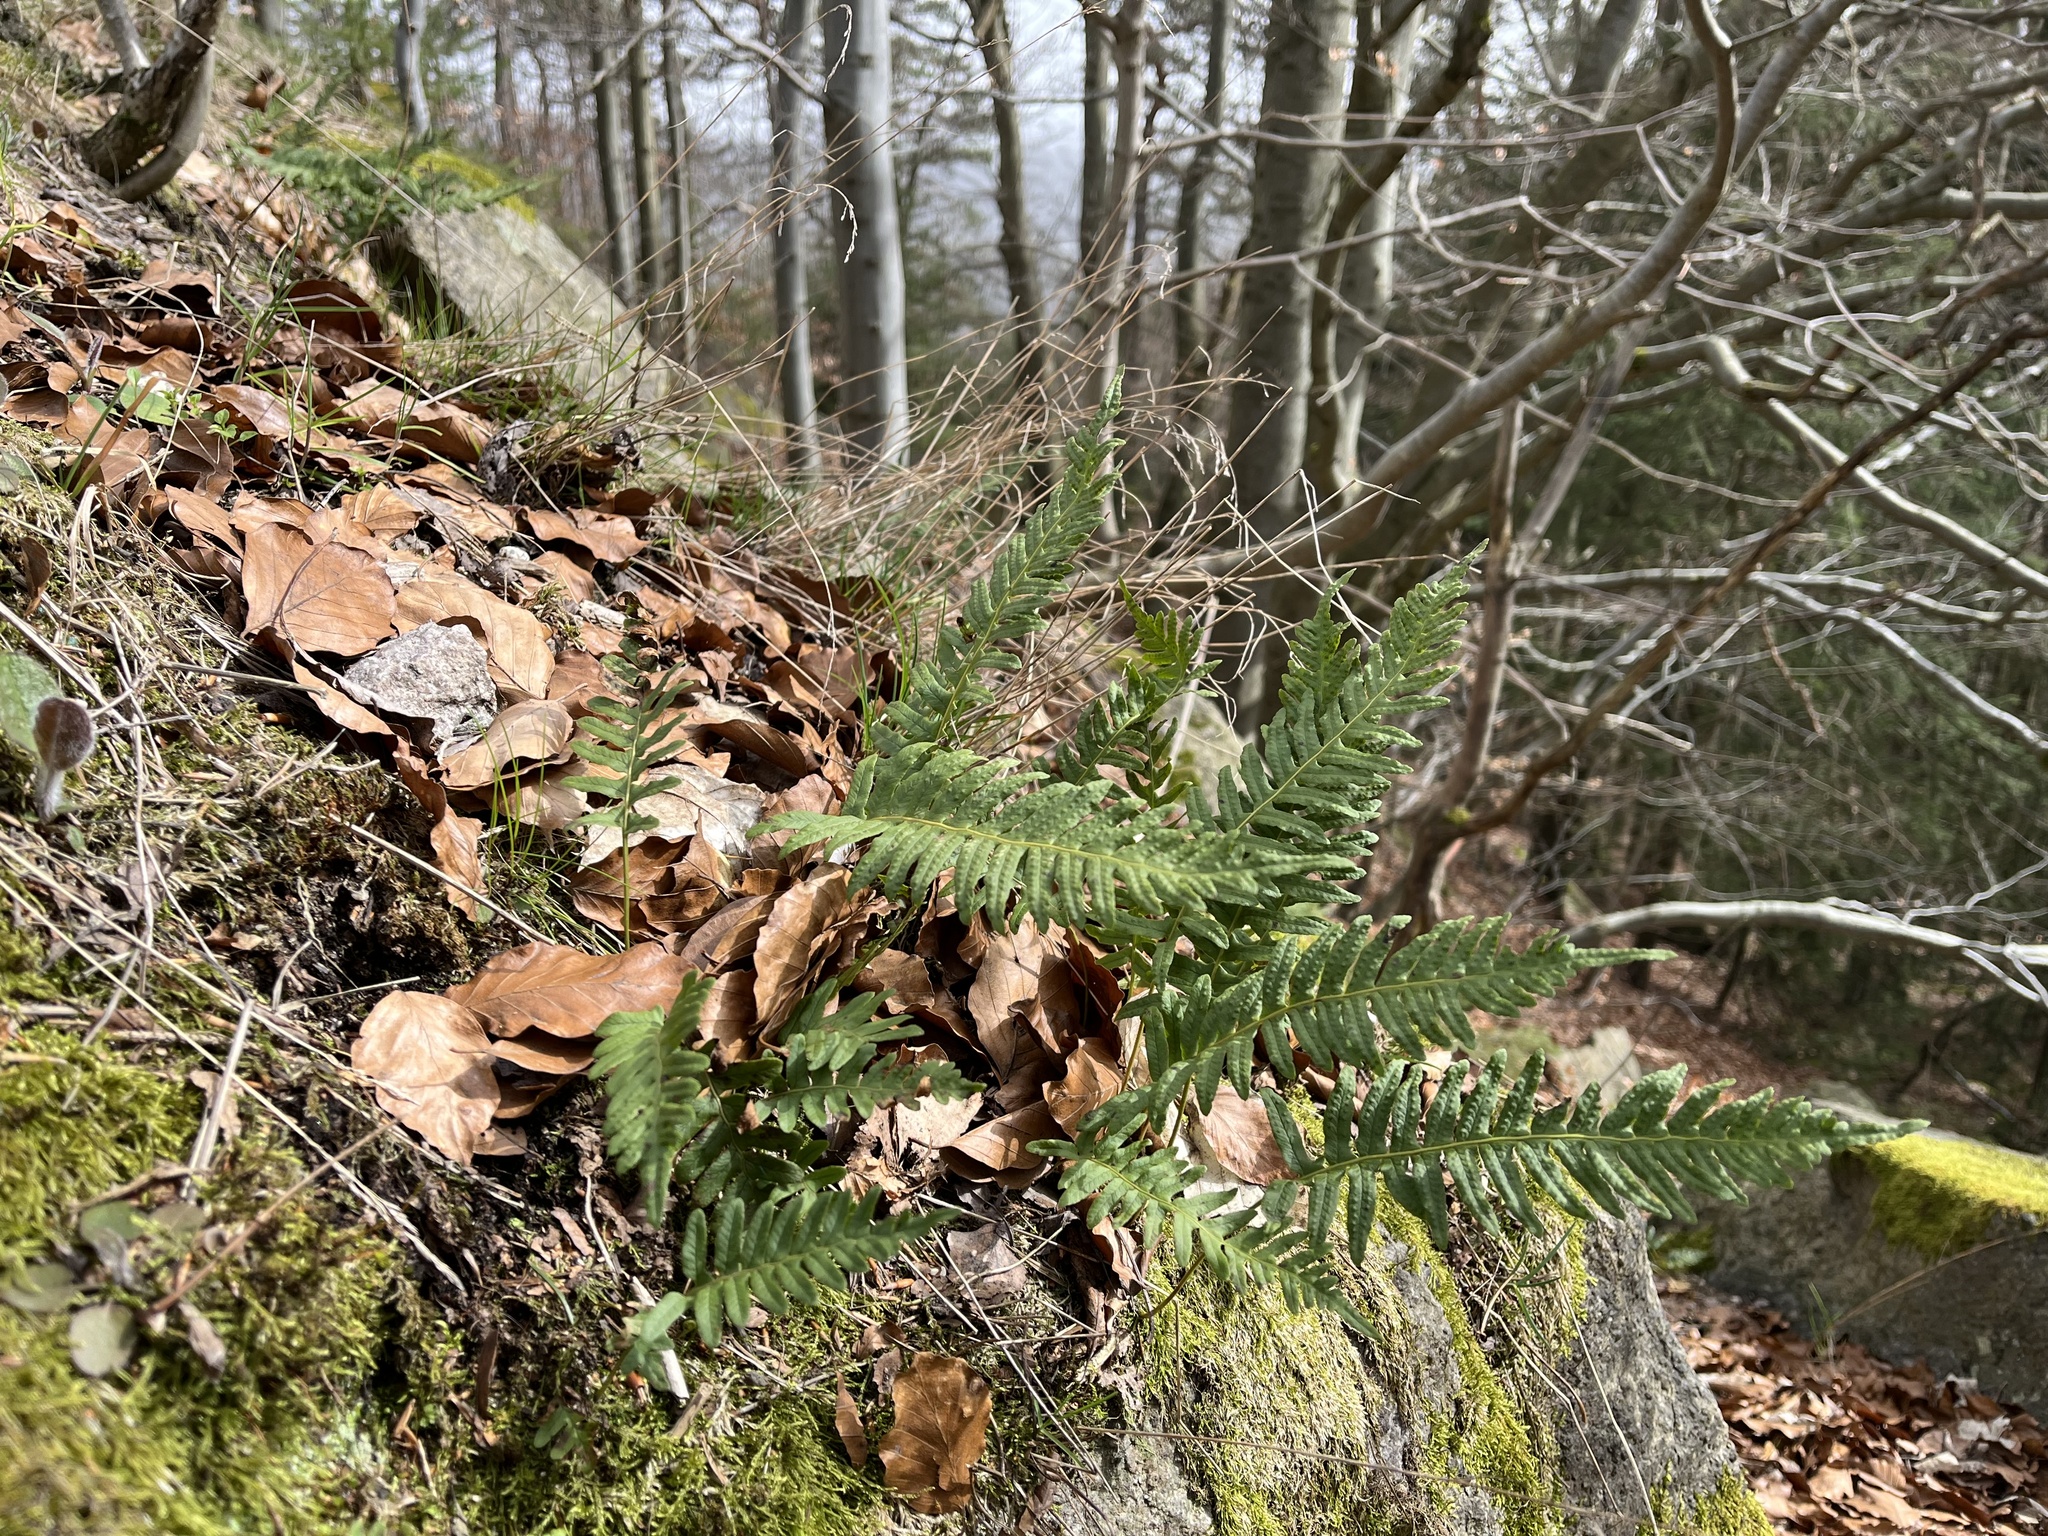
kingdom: Plantae
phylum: Tracheophyta
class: Polypodiopsida
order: Polypodiales
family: Polypodiaceae
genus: Polypodium
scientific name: Polypodium vulgare
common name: Common polypody
